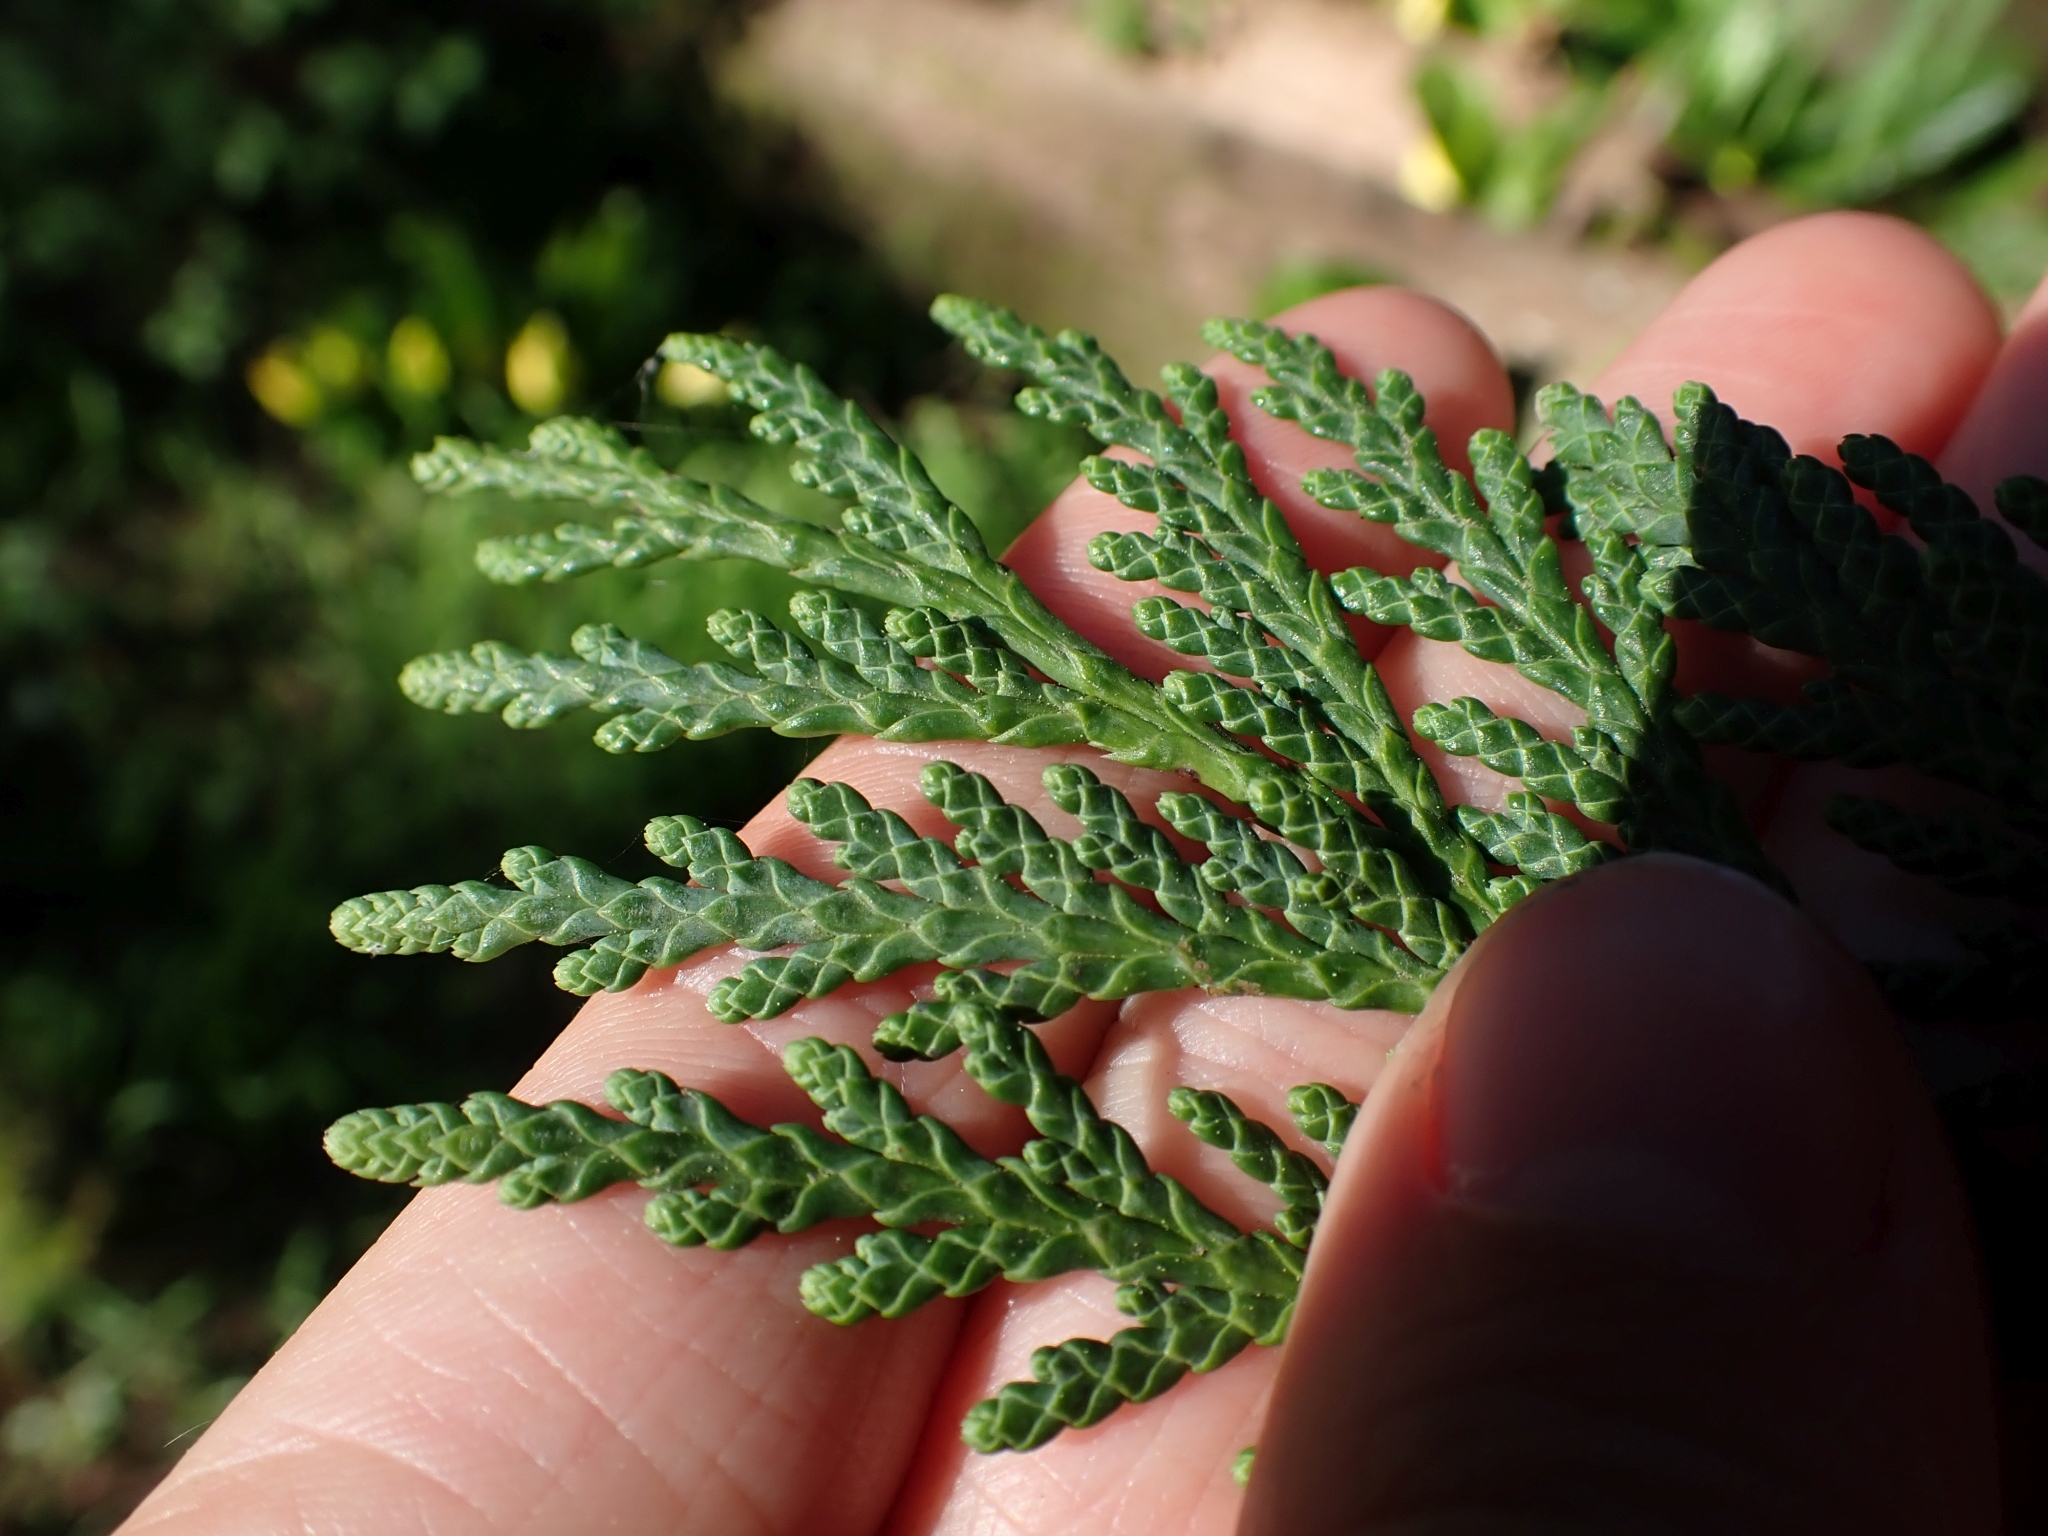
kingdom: Plantae
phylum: Tracheophyta
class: Pinopsida
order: Pinales
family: Cupressaceae
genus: Thuja
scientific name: Thuja plicata
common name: Western red-cedar
